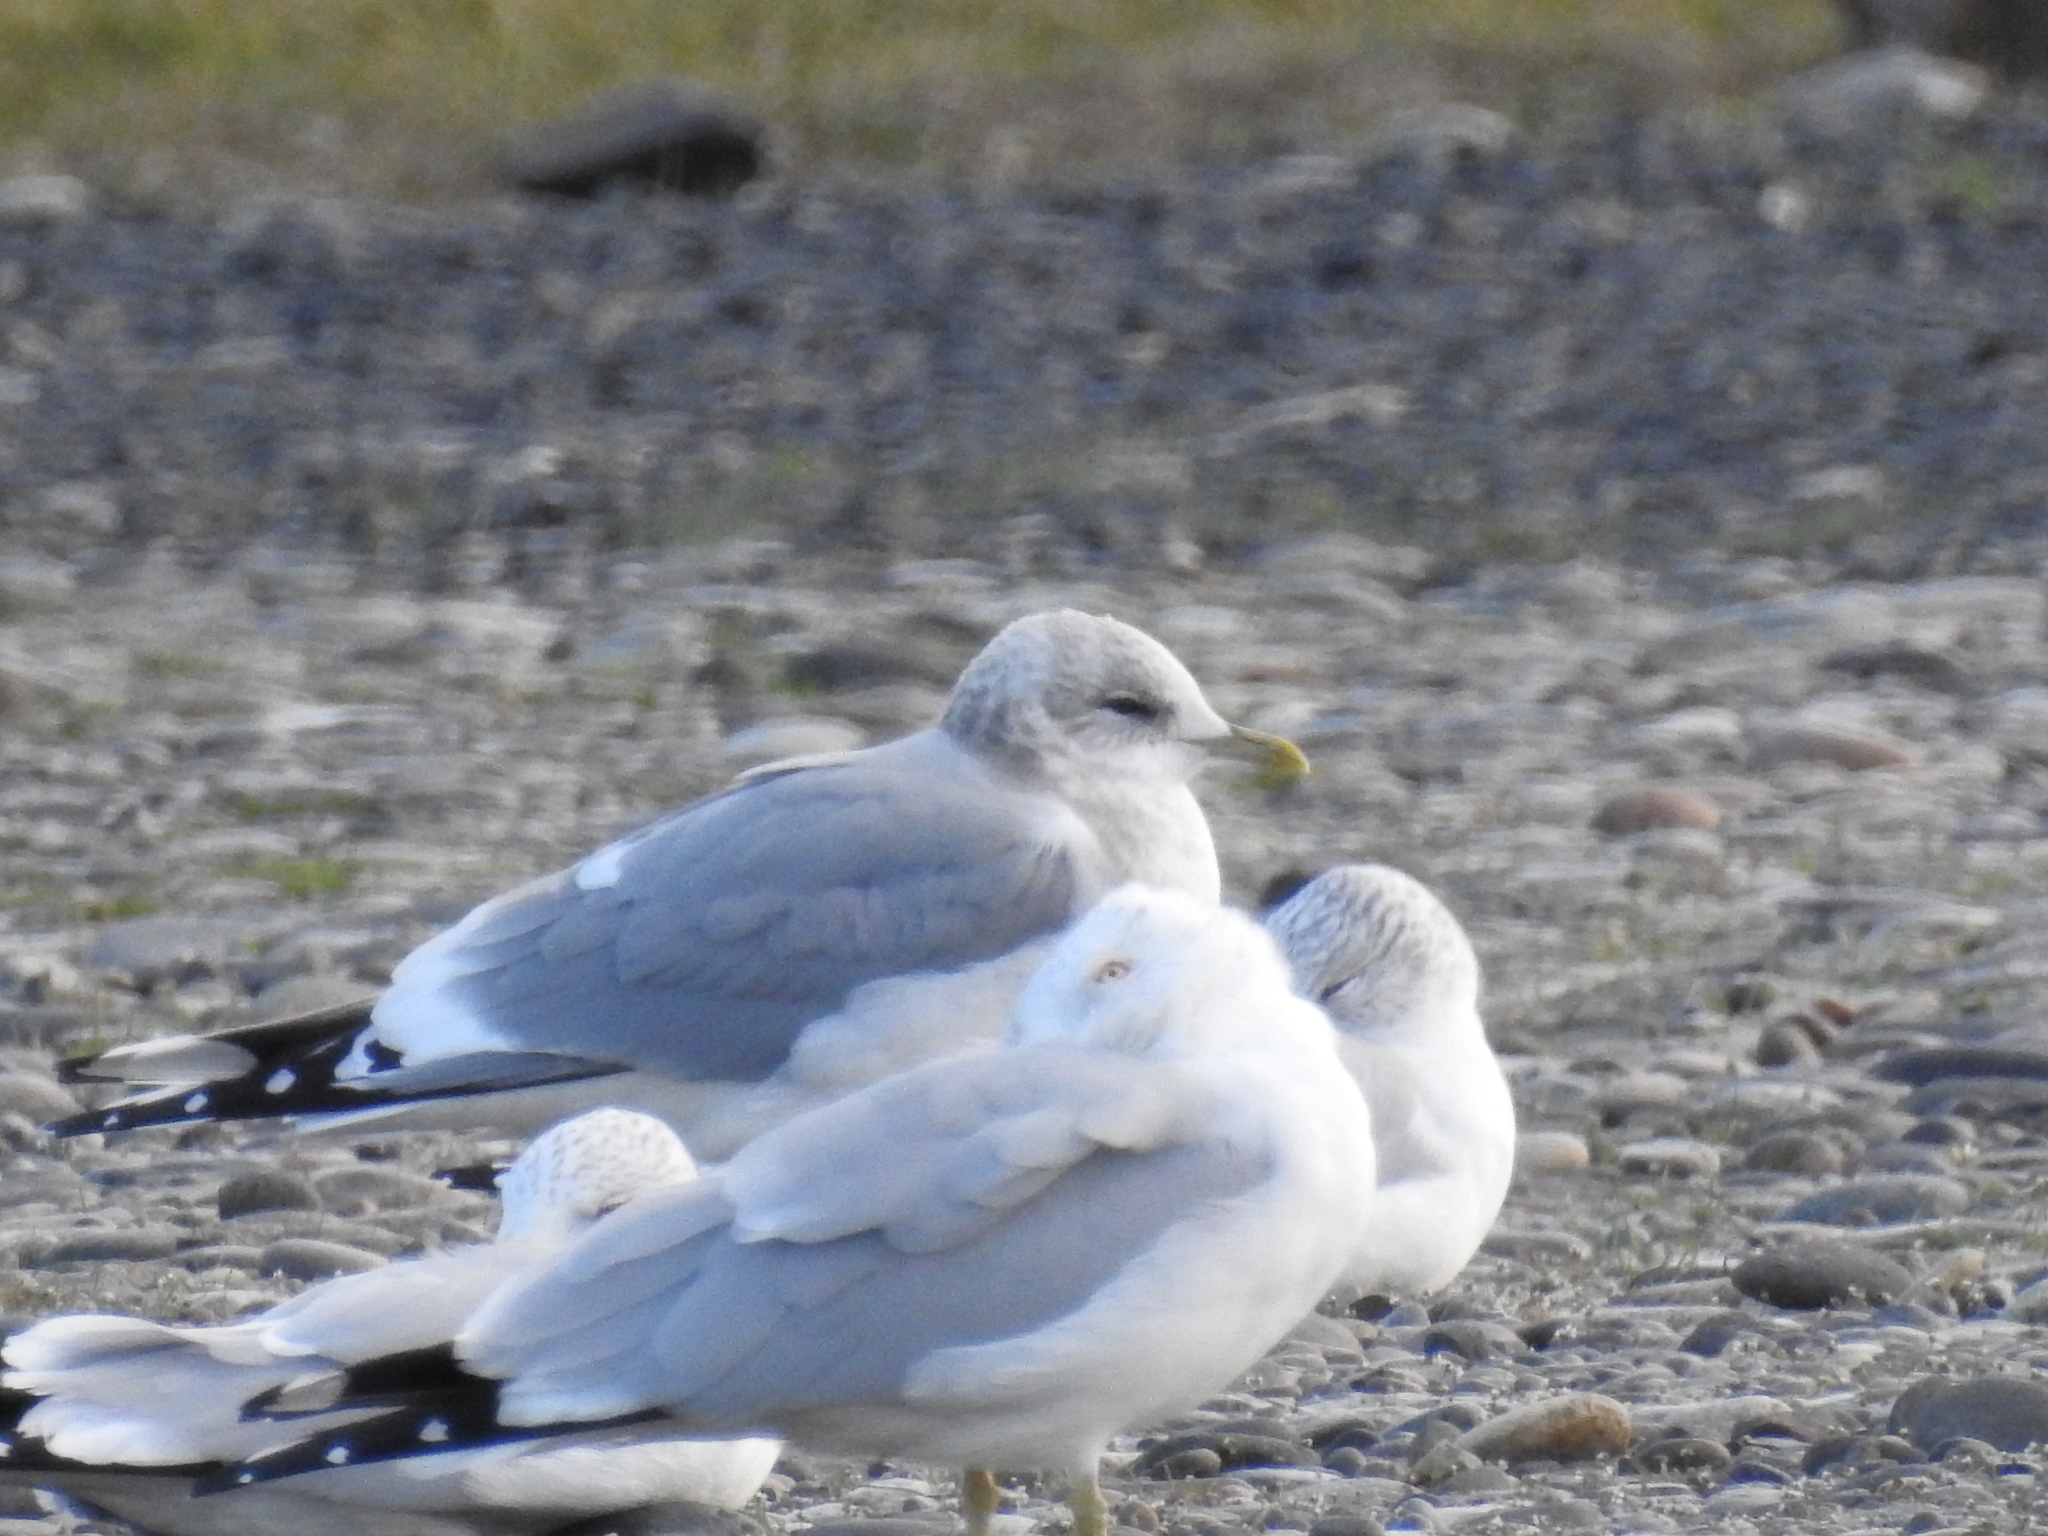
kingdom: Animalia
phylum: Chordata
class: Aves
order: Charadriiformes
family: Laridae
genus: Larus
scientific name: Larus brachyrhynchus
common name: Short-billed gull
